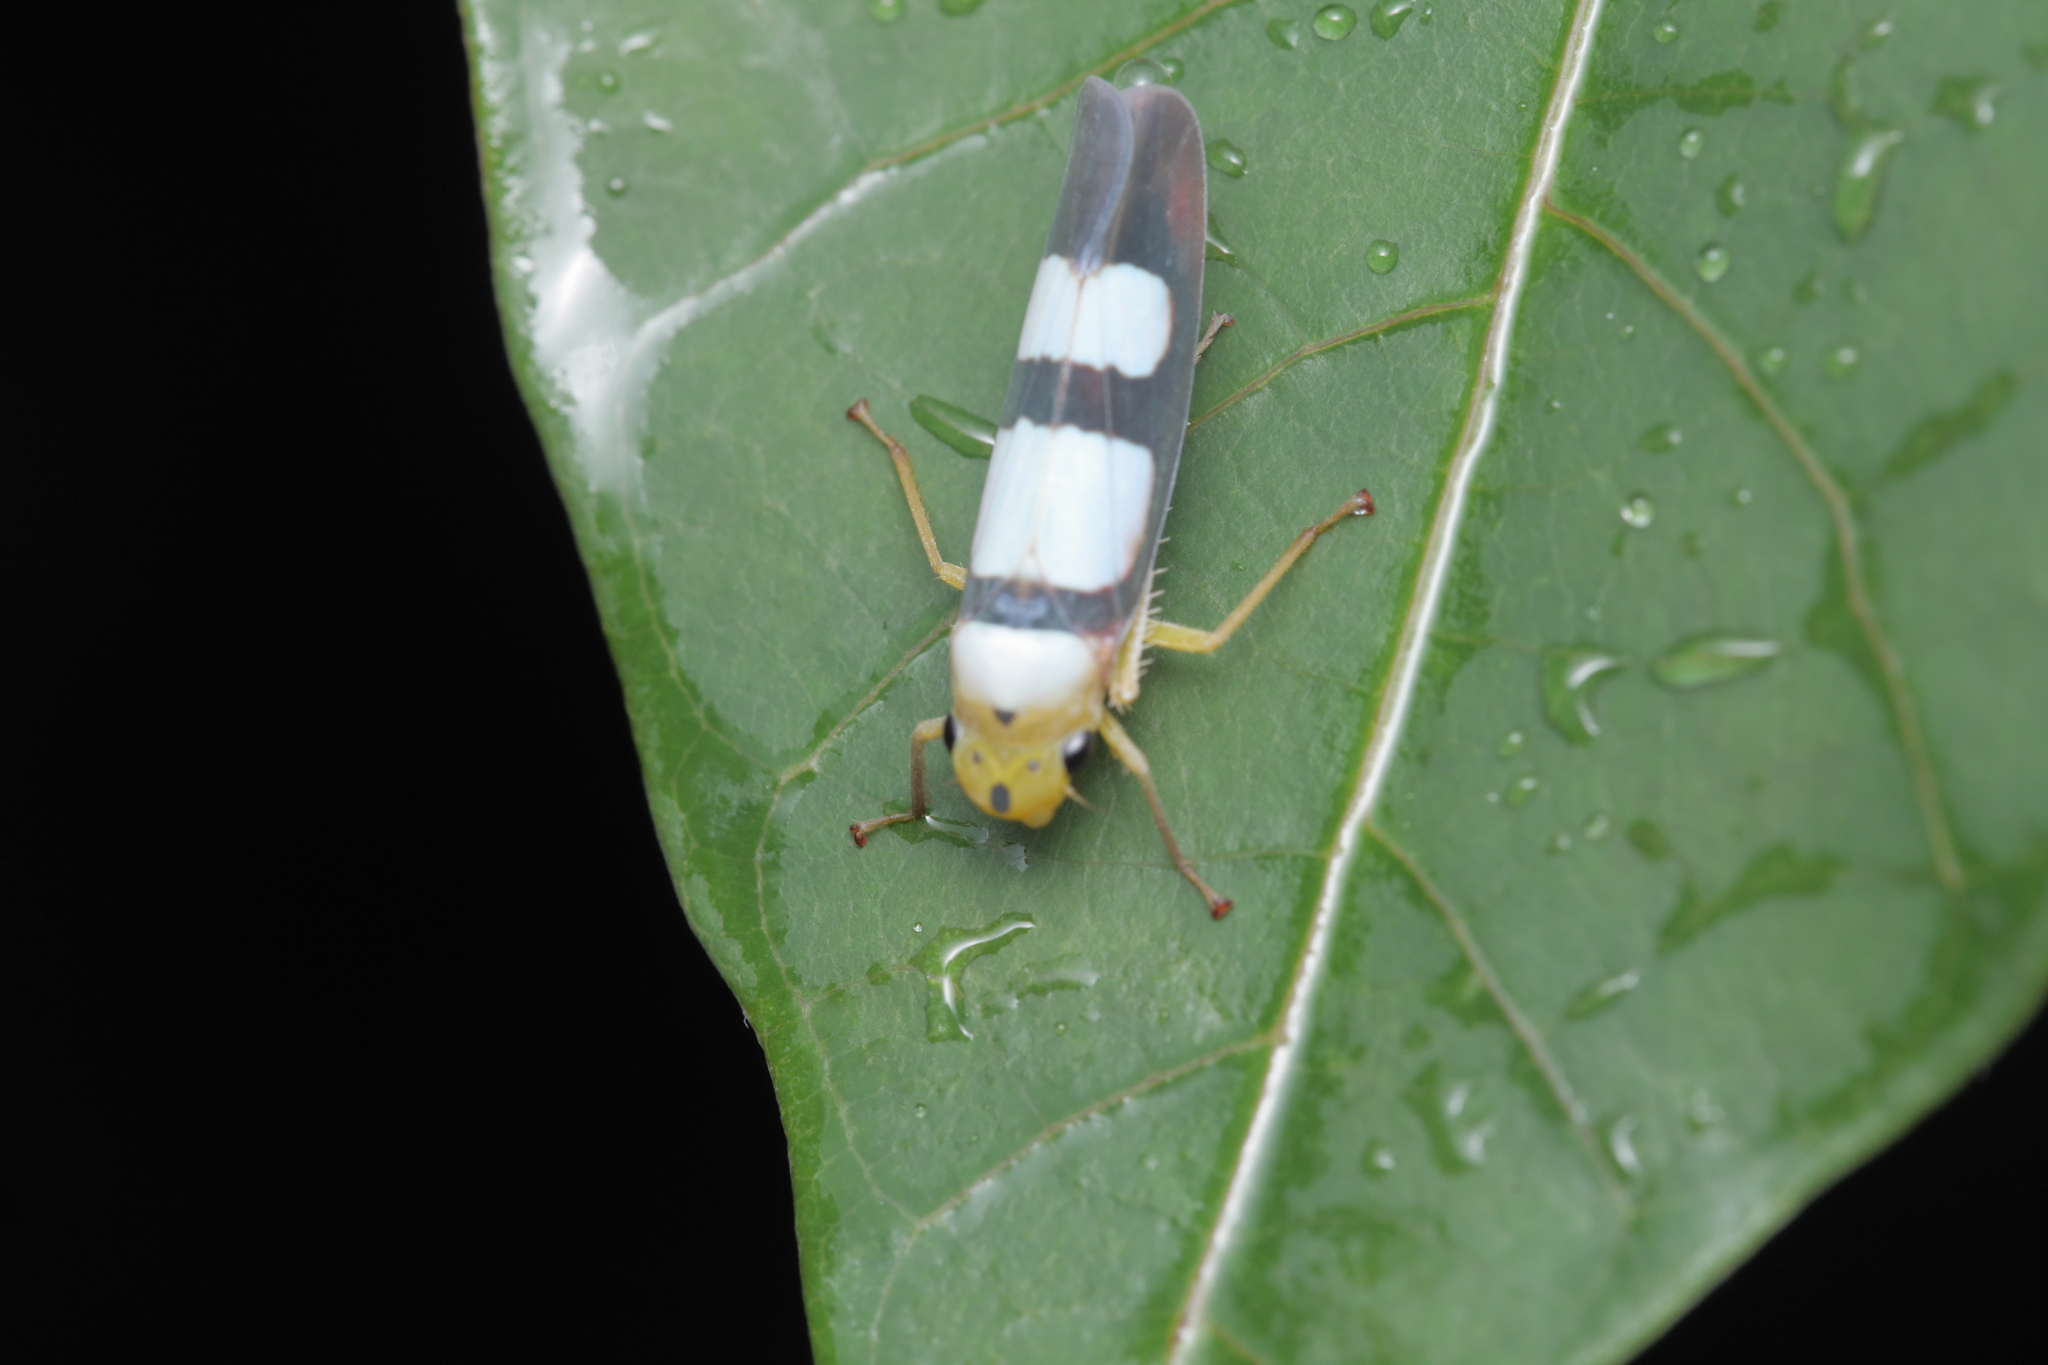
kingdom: Animalia
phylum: Arthropoda
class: Insecta
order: Hemiptera
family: Cicadellidae
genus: Tettisama
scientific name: Tettisama bisellata
